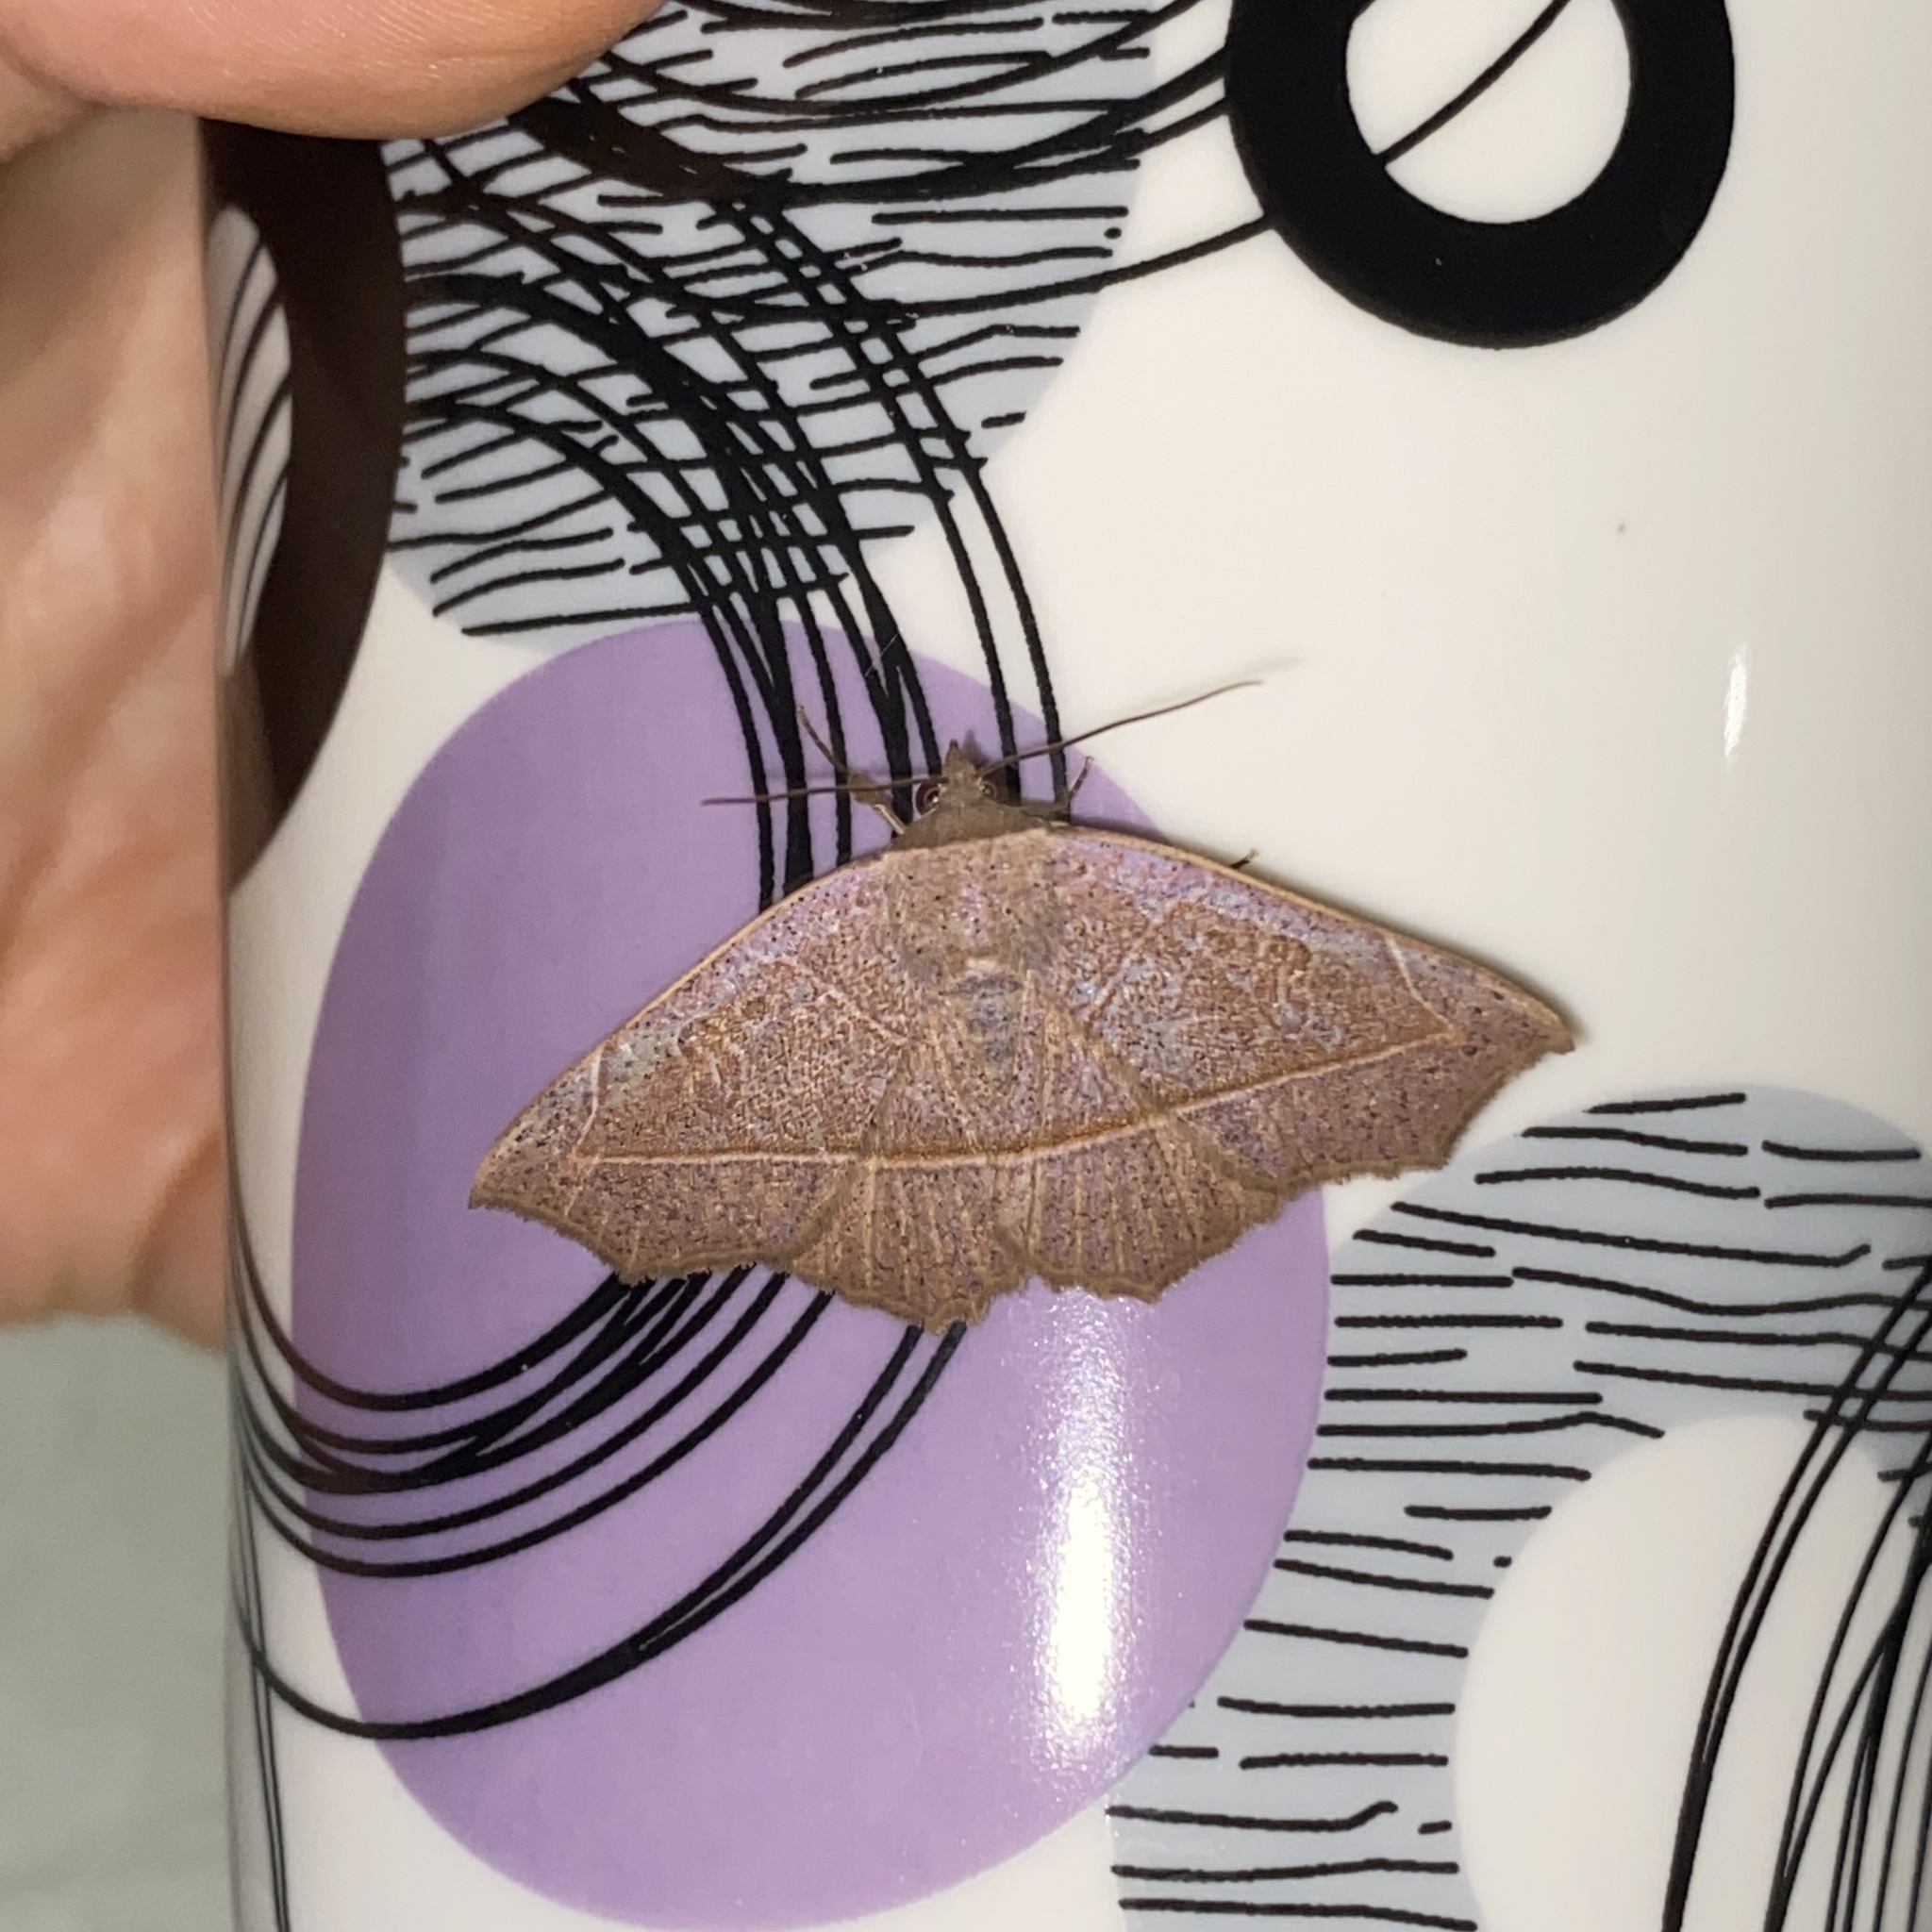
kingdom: Animalia
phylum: Arthropoda
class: Insecta
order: Lepidoptera
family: Erebidae
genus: Epitausa
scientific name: Epitausa pallescens
